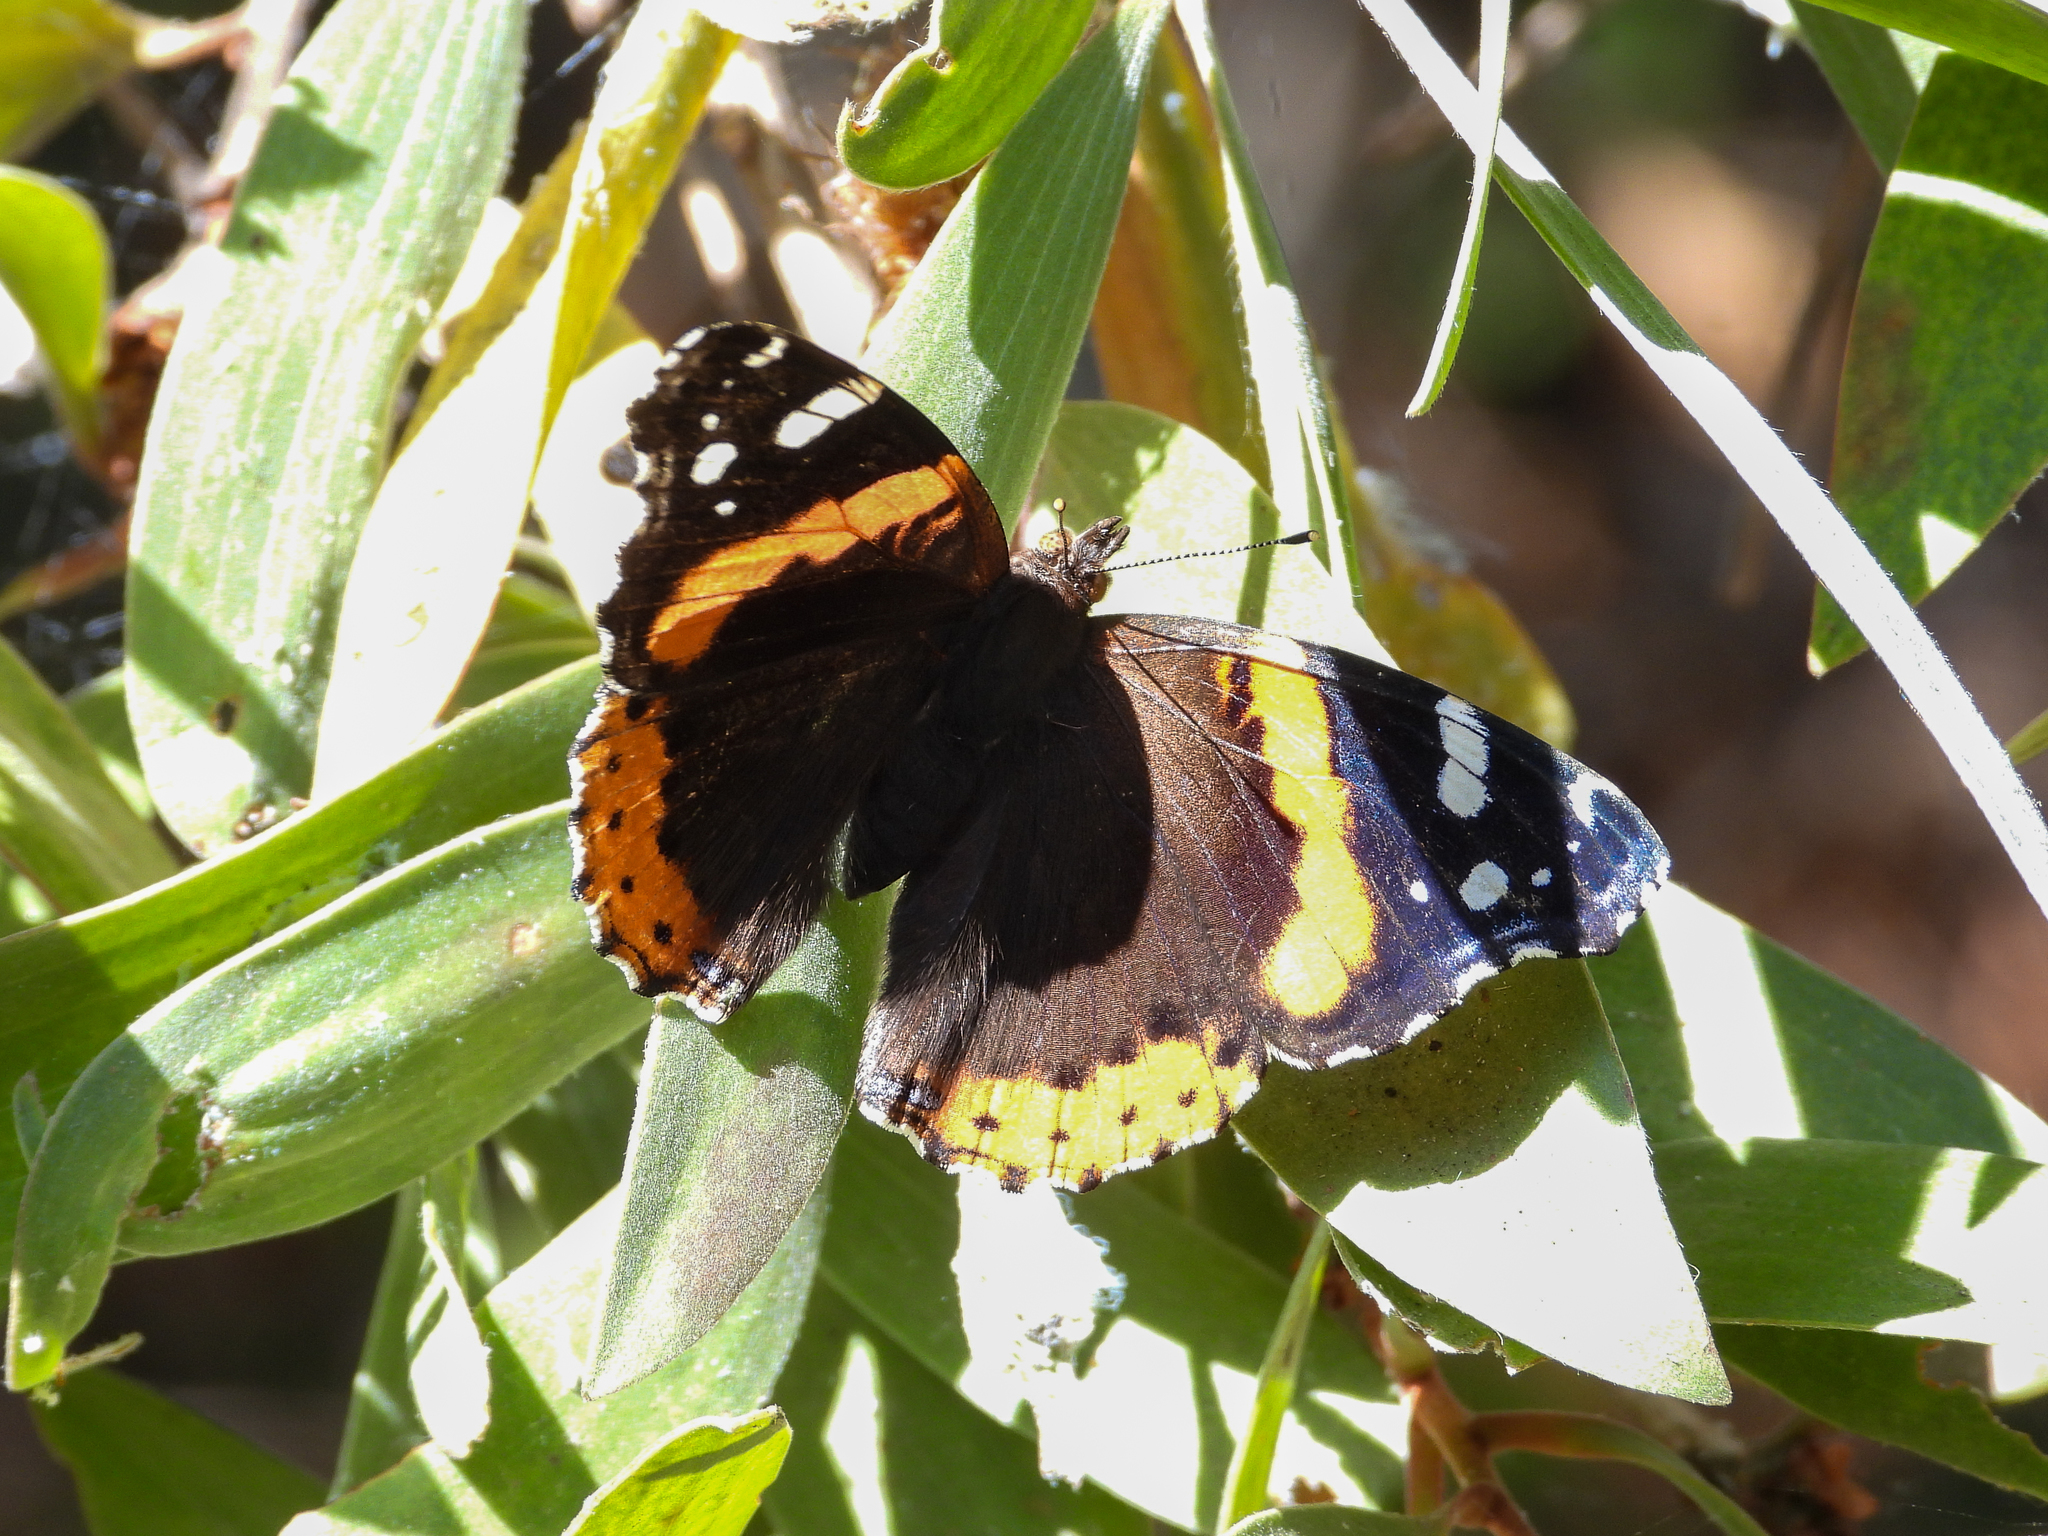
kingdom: Animalia
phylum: Arthropoda
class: Insecta
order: Lepidoptera
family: Nymphalidae
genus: Vanessa
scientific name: Vanessa atalanta
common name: Red admiral
